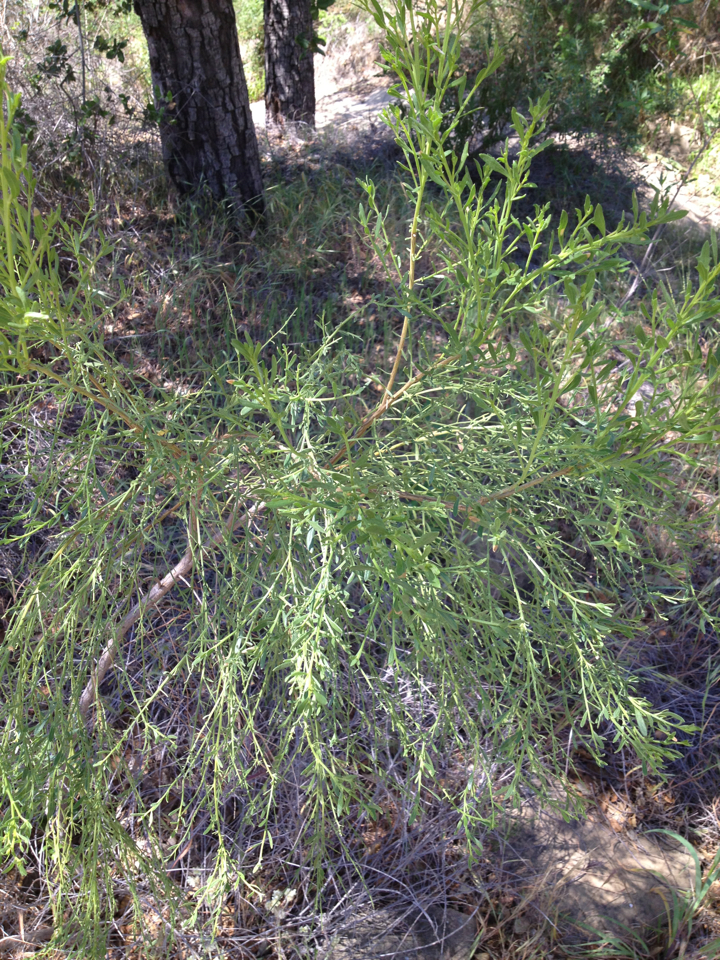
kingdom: Plantae
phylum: Tracheophyta
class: Magnoliopsida
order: Asterales
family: Asteraceae
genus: Baccharis
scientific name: Baccharis
